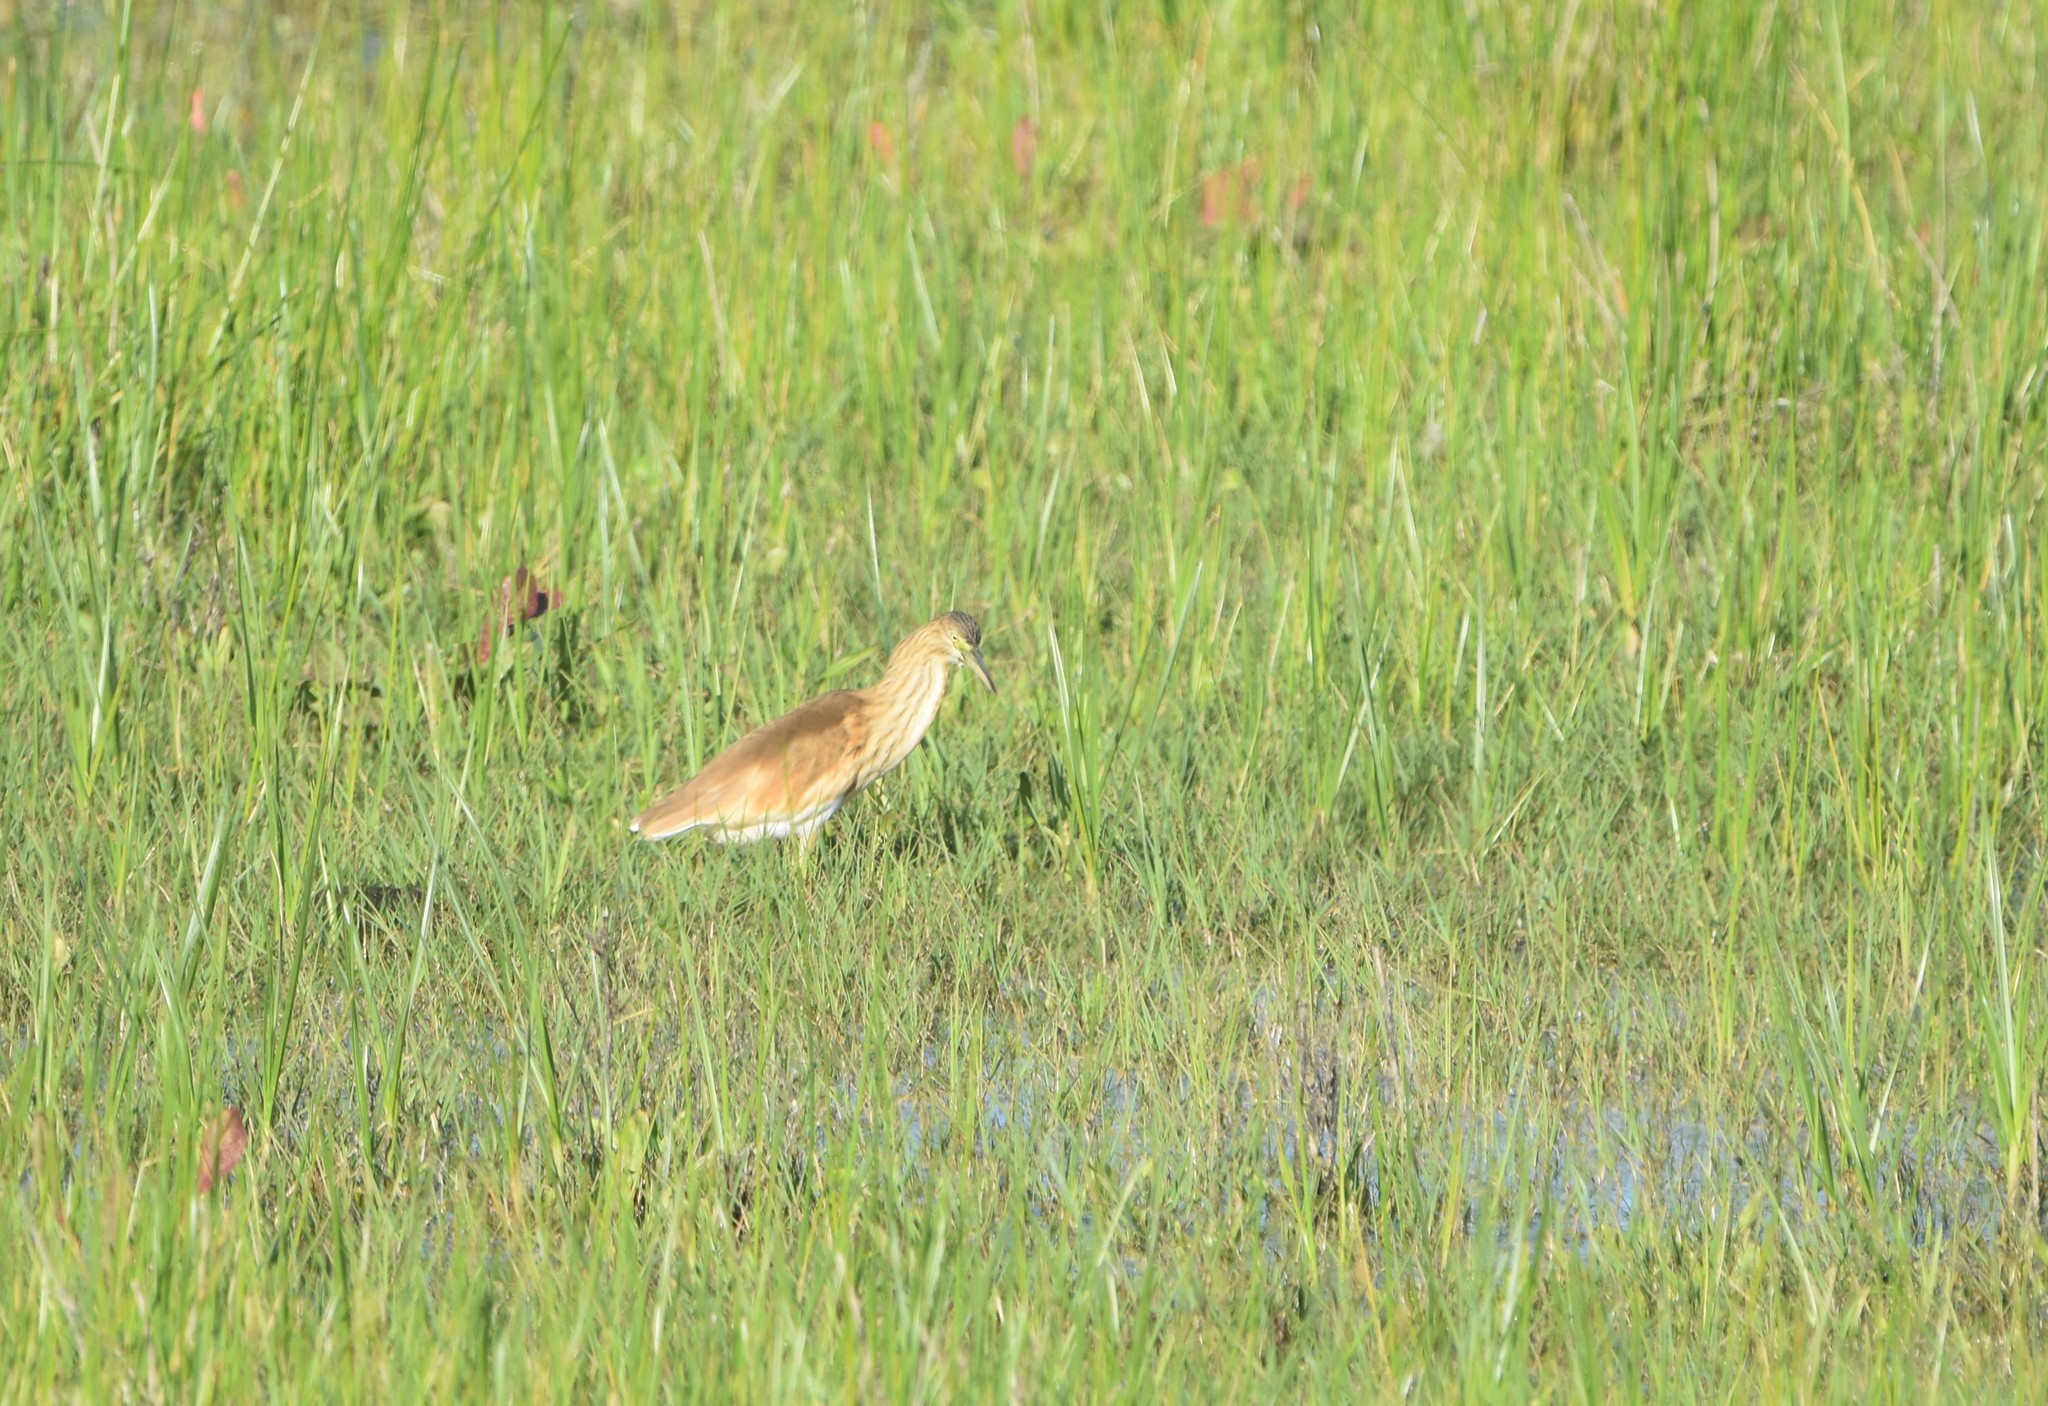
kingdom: Animalia
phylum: Chordata
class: Aves
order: Pelecaniformes
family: Ardeidae
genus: Ardeola
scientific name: Ardeola ralloides
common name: Squacco heron
